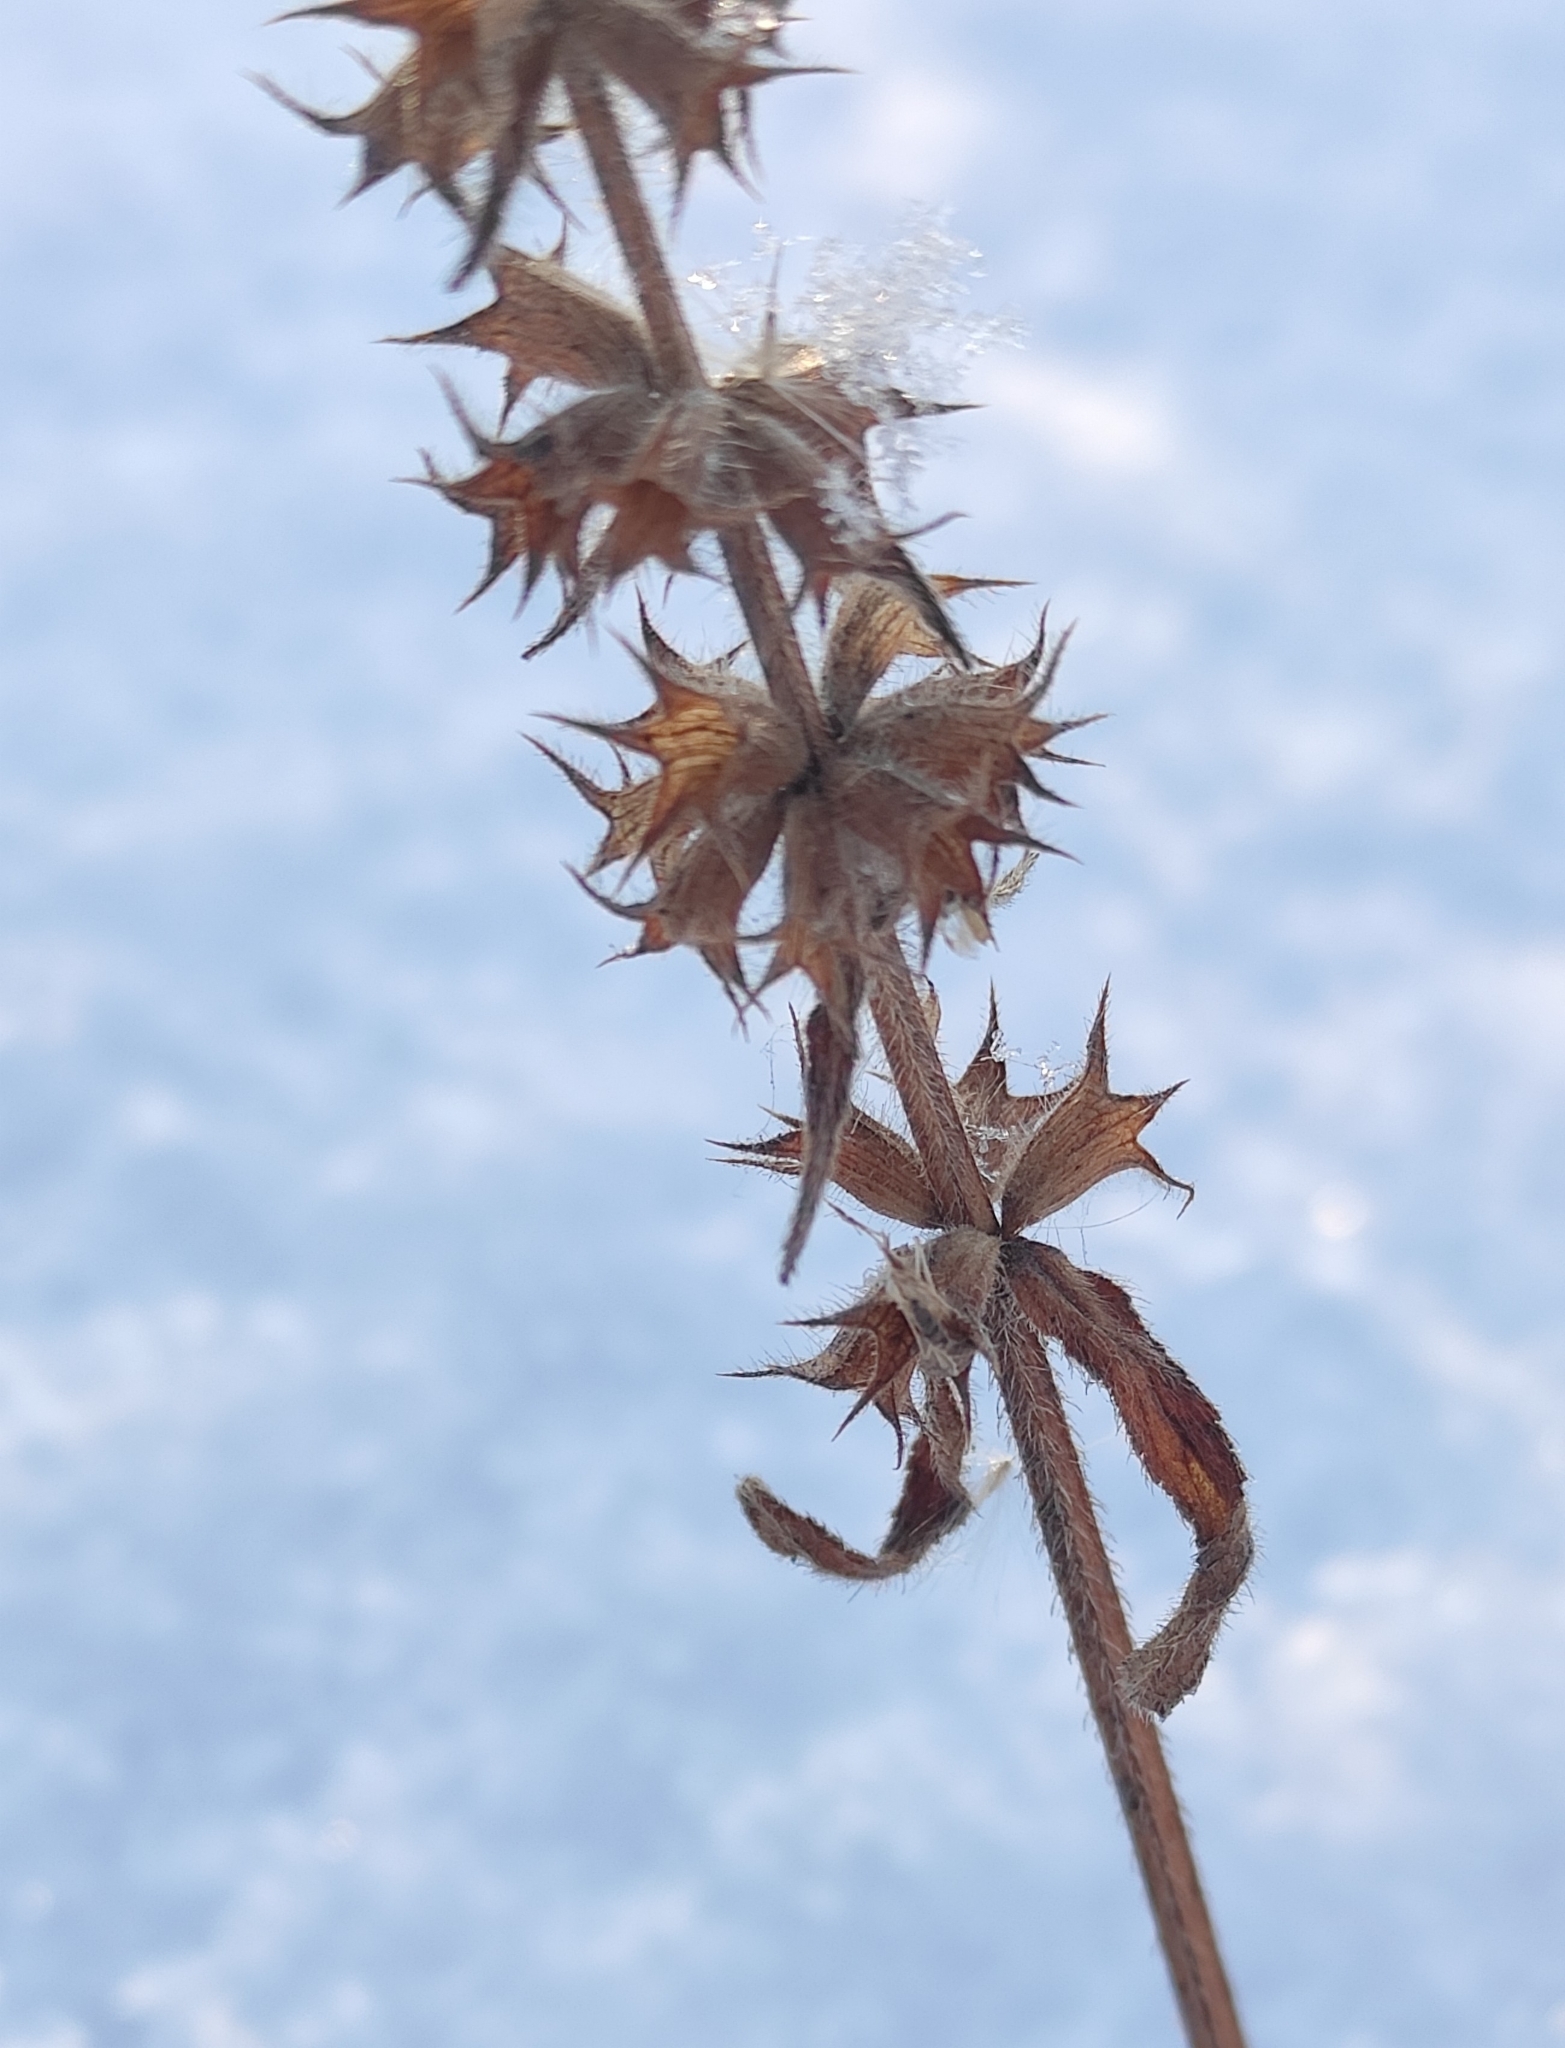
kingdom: Plantae
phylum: Tracheophyta
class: Magnoliopsida
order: Lamiales
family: Lamiaceae
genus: Stachys
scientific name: Stachys aspera
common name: Hyssopleaf hedgenettle
